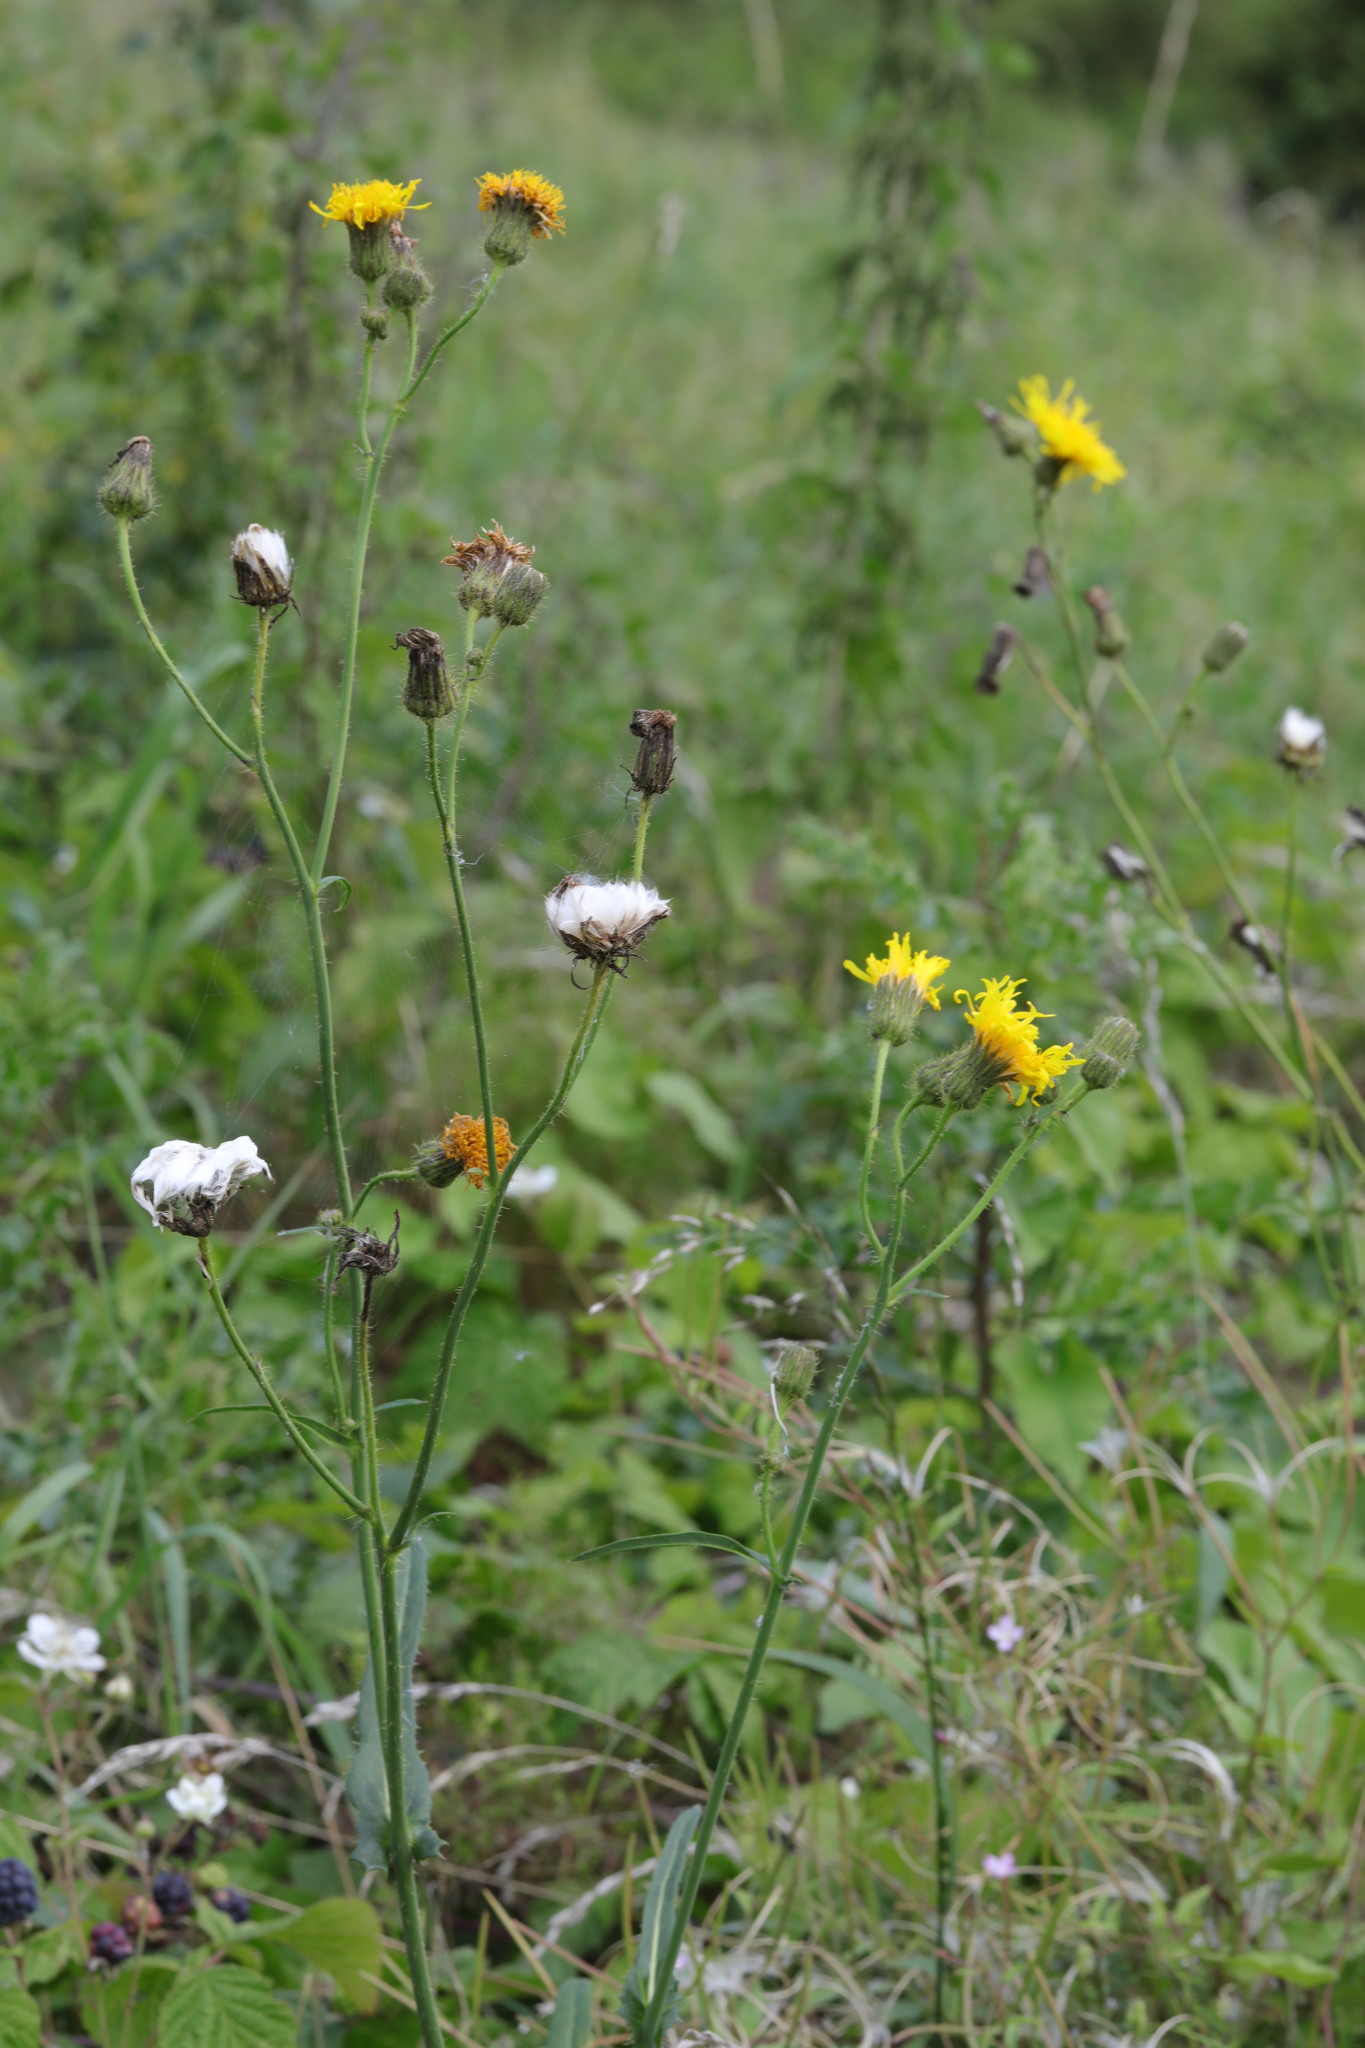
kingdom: Plantae
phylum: Tracheophyta
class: Magnoliopsida
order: Asterales
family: Asteraceae
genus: Sonchus
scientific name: Sonchus arvensis
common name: Perennial sow-thistle
